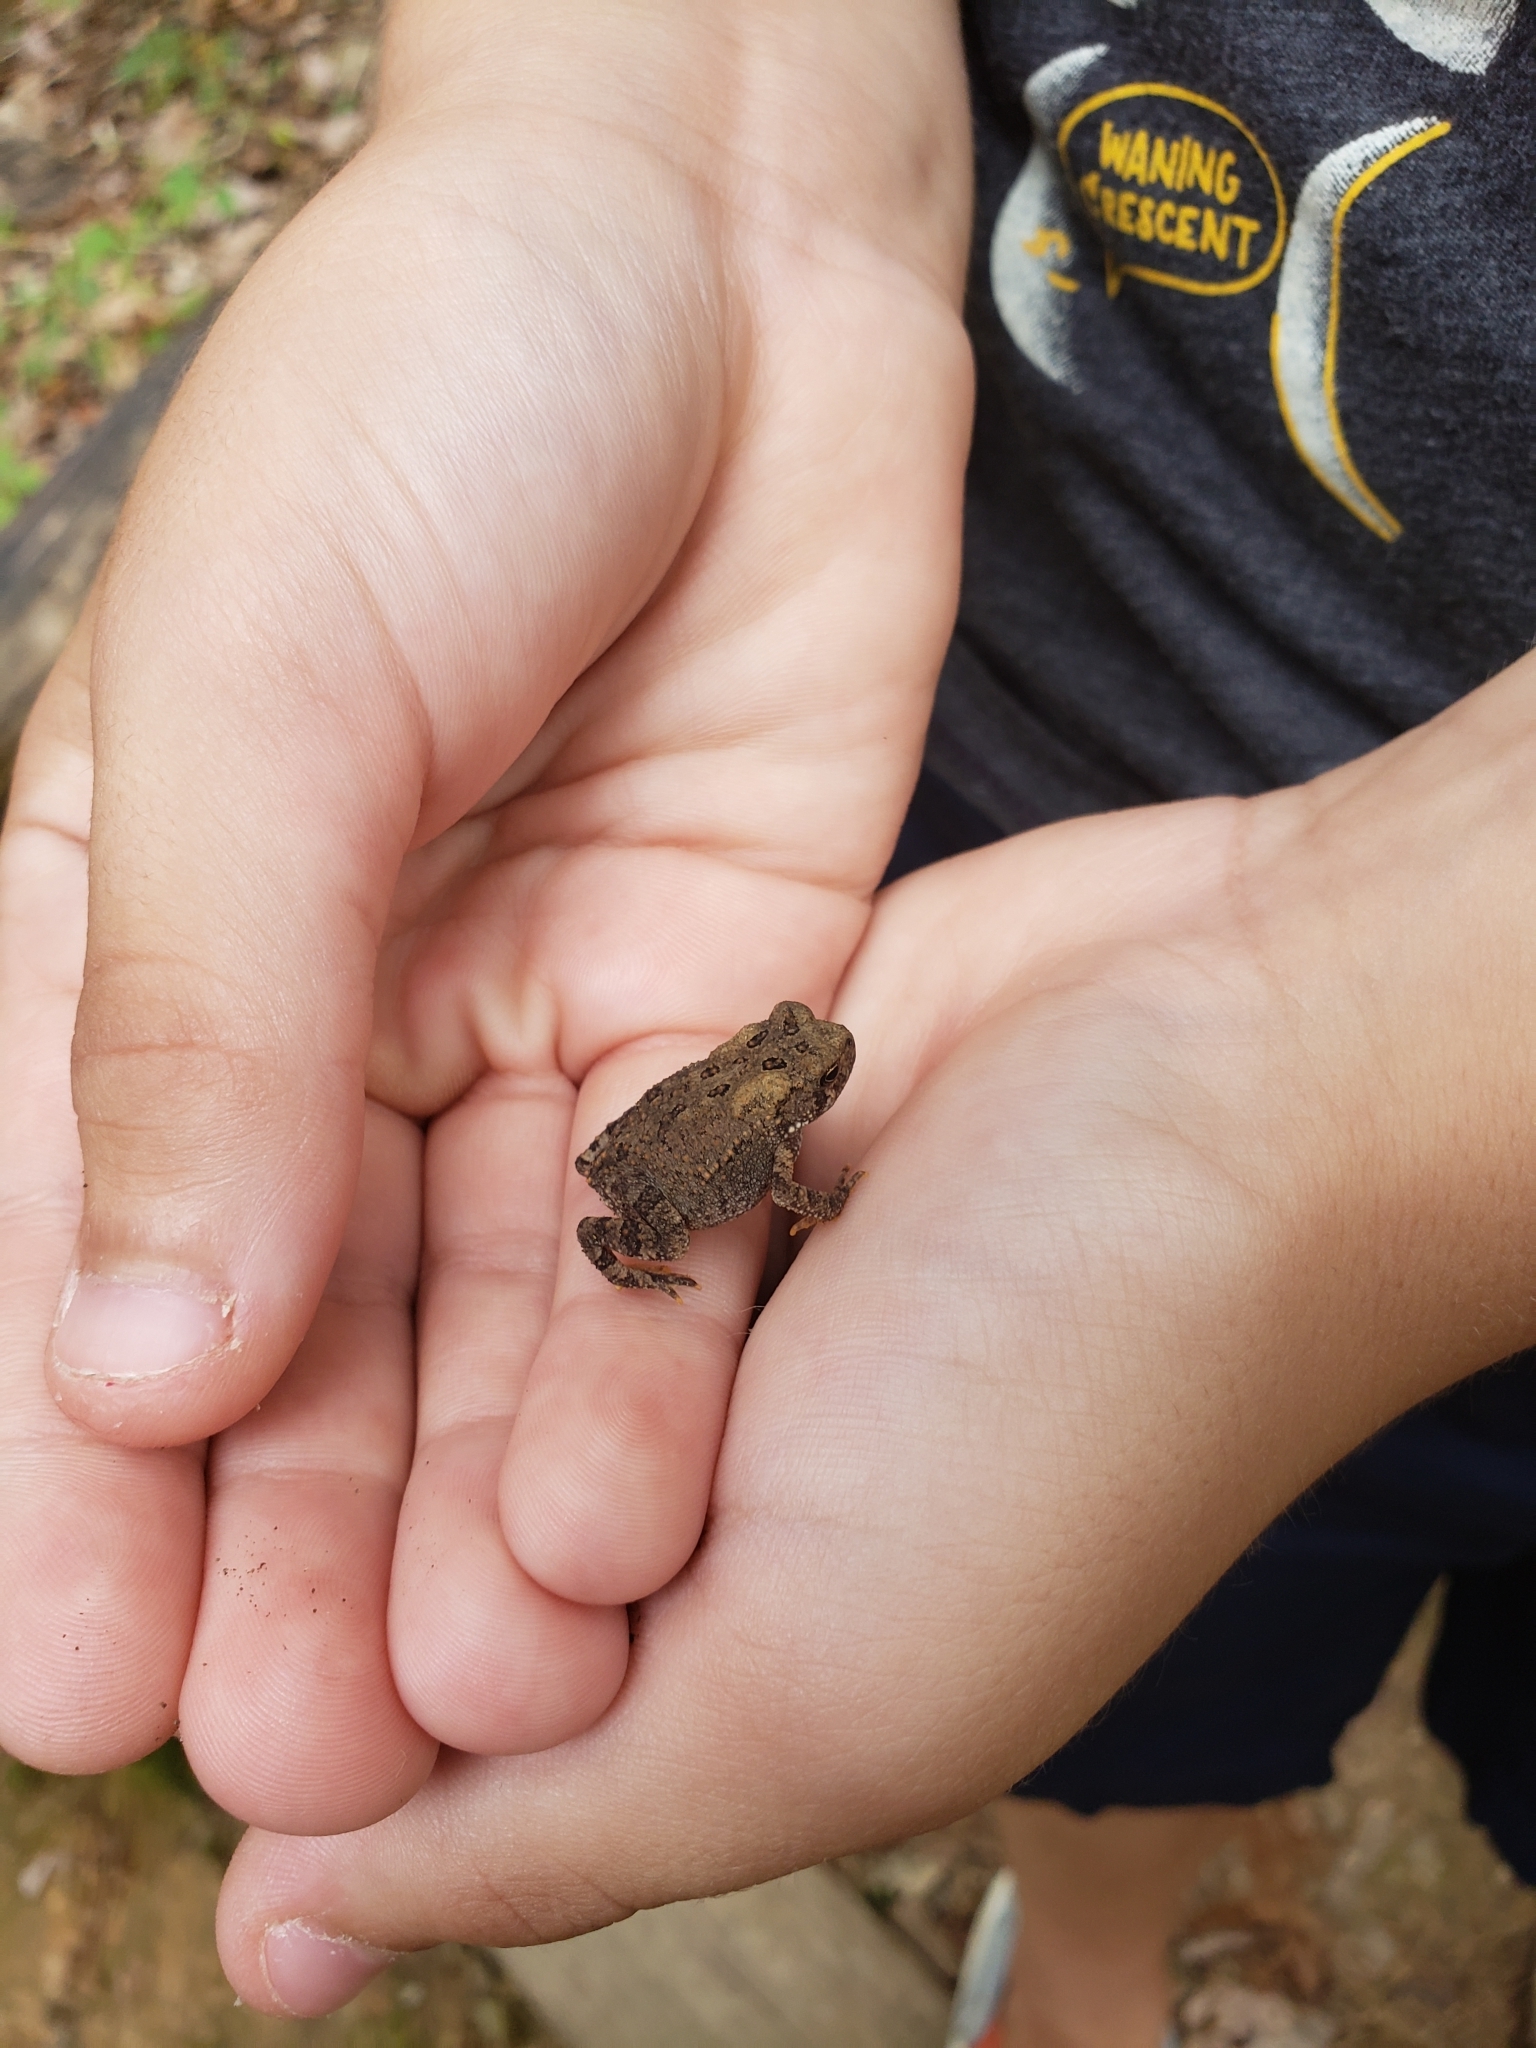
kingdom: Animalia
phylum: Chordata
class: Amphibia
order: Anura
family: Bufonidae
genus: Anaxyrus
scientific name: Anaxyrus americanus
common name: American toad
